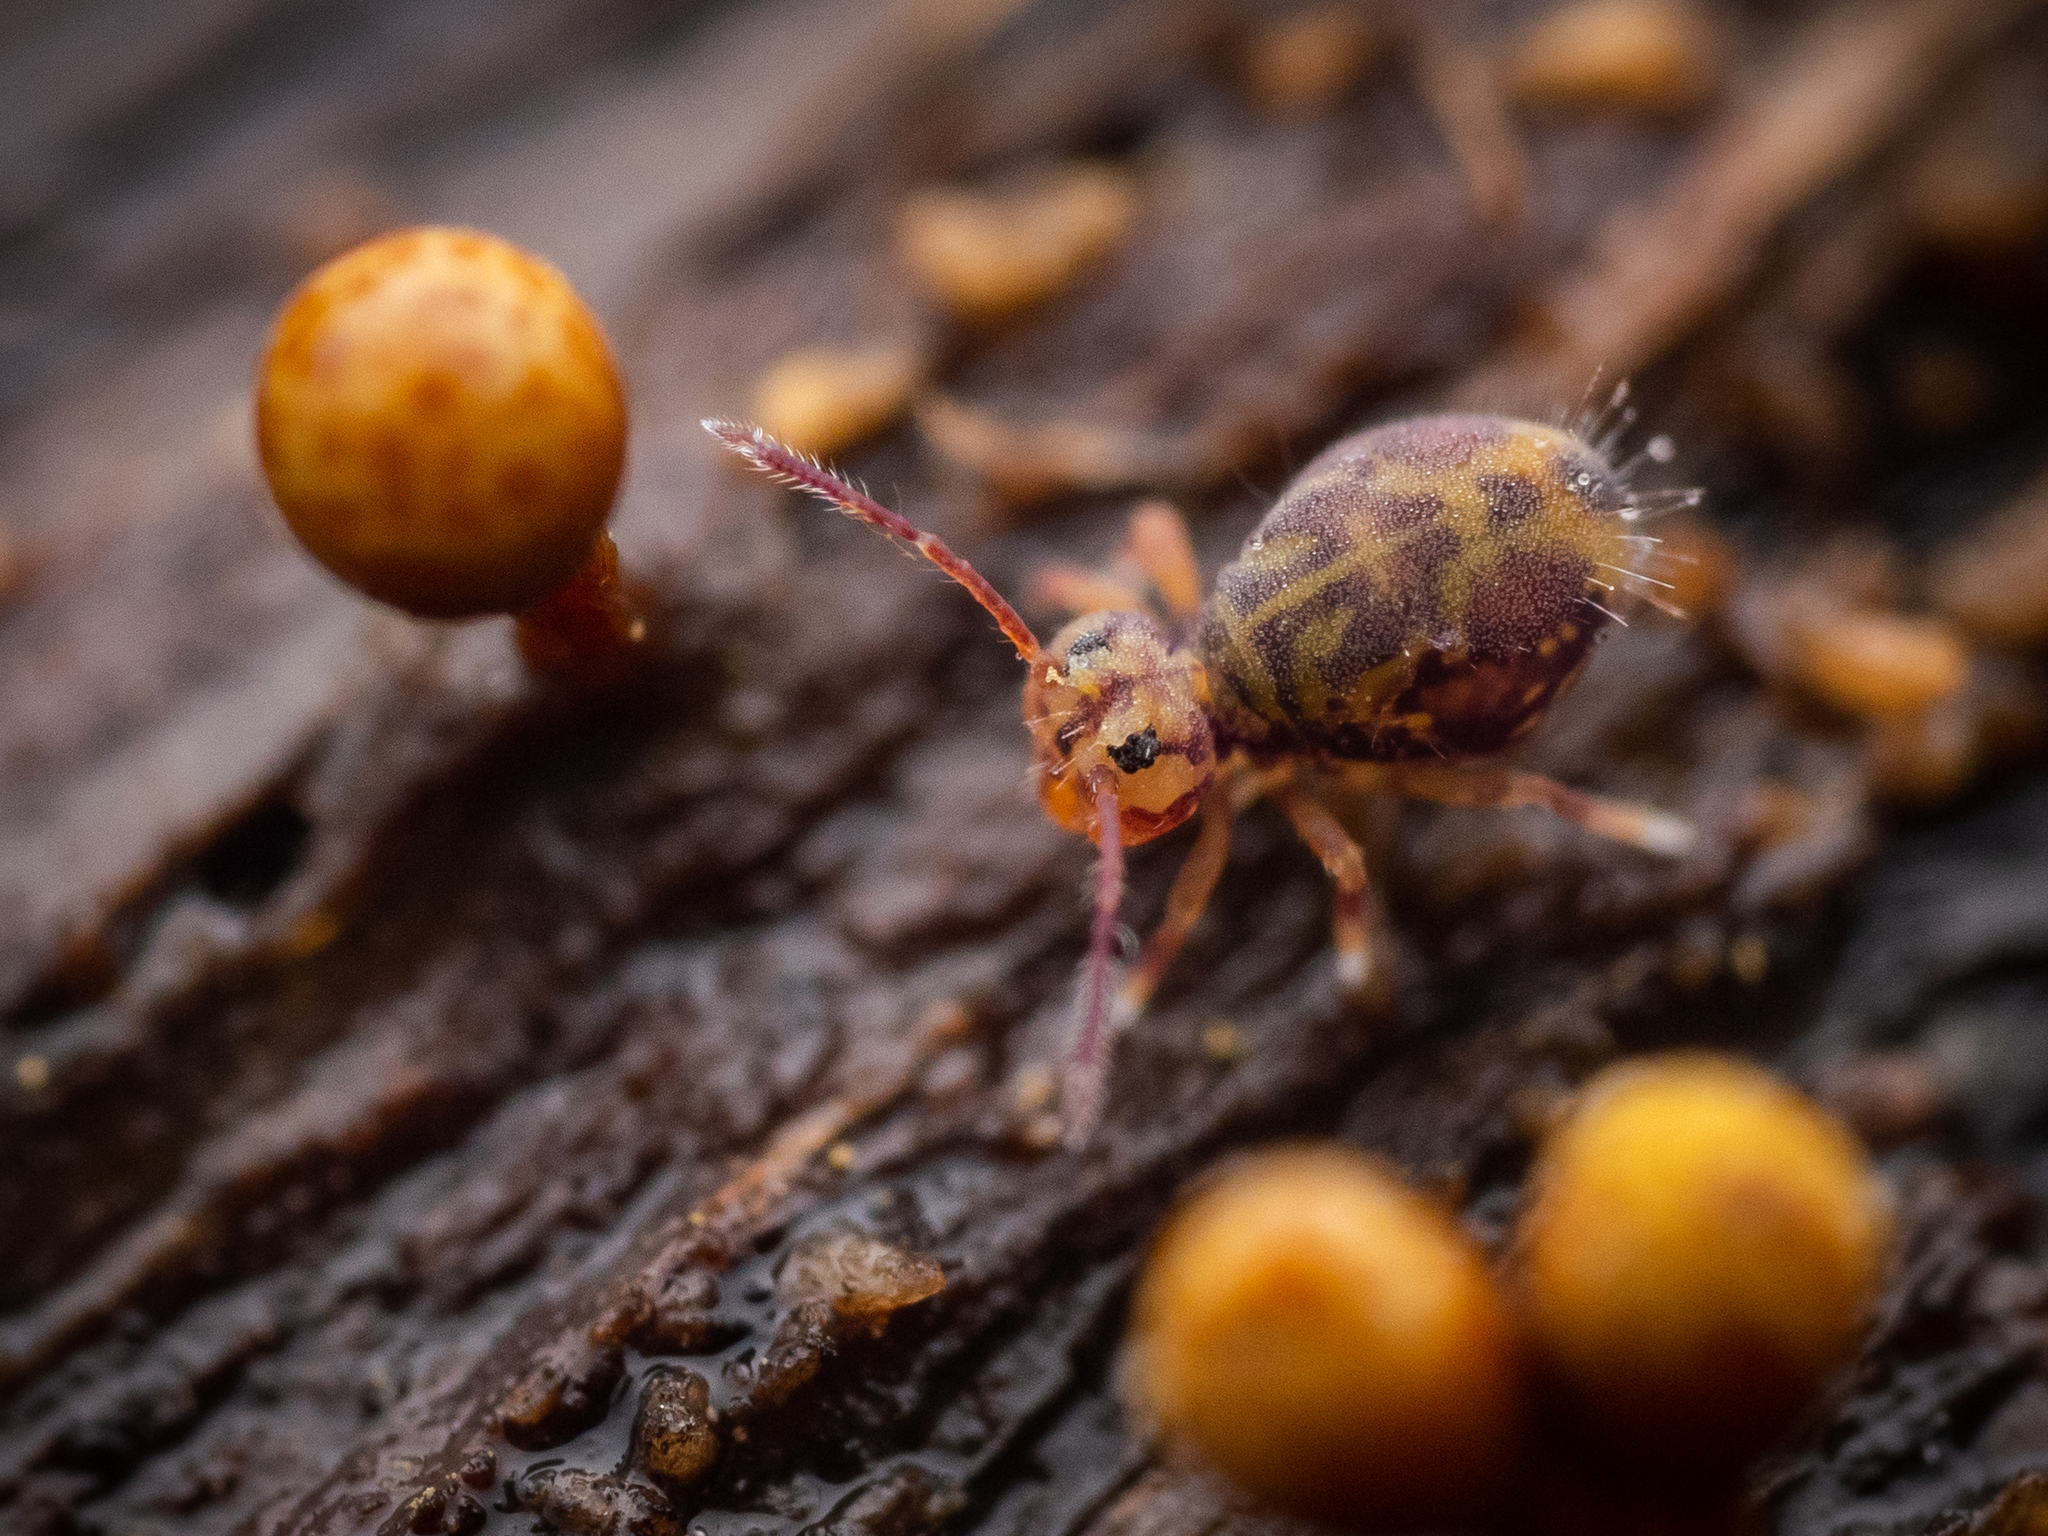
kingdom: Animalia
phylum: Arthropoda
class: Collembola
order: Symphypleona
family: Dicyrtomidae
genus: Dicyrtomina
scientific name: Dicyrtomina ornata
